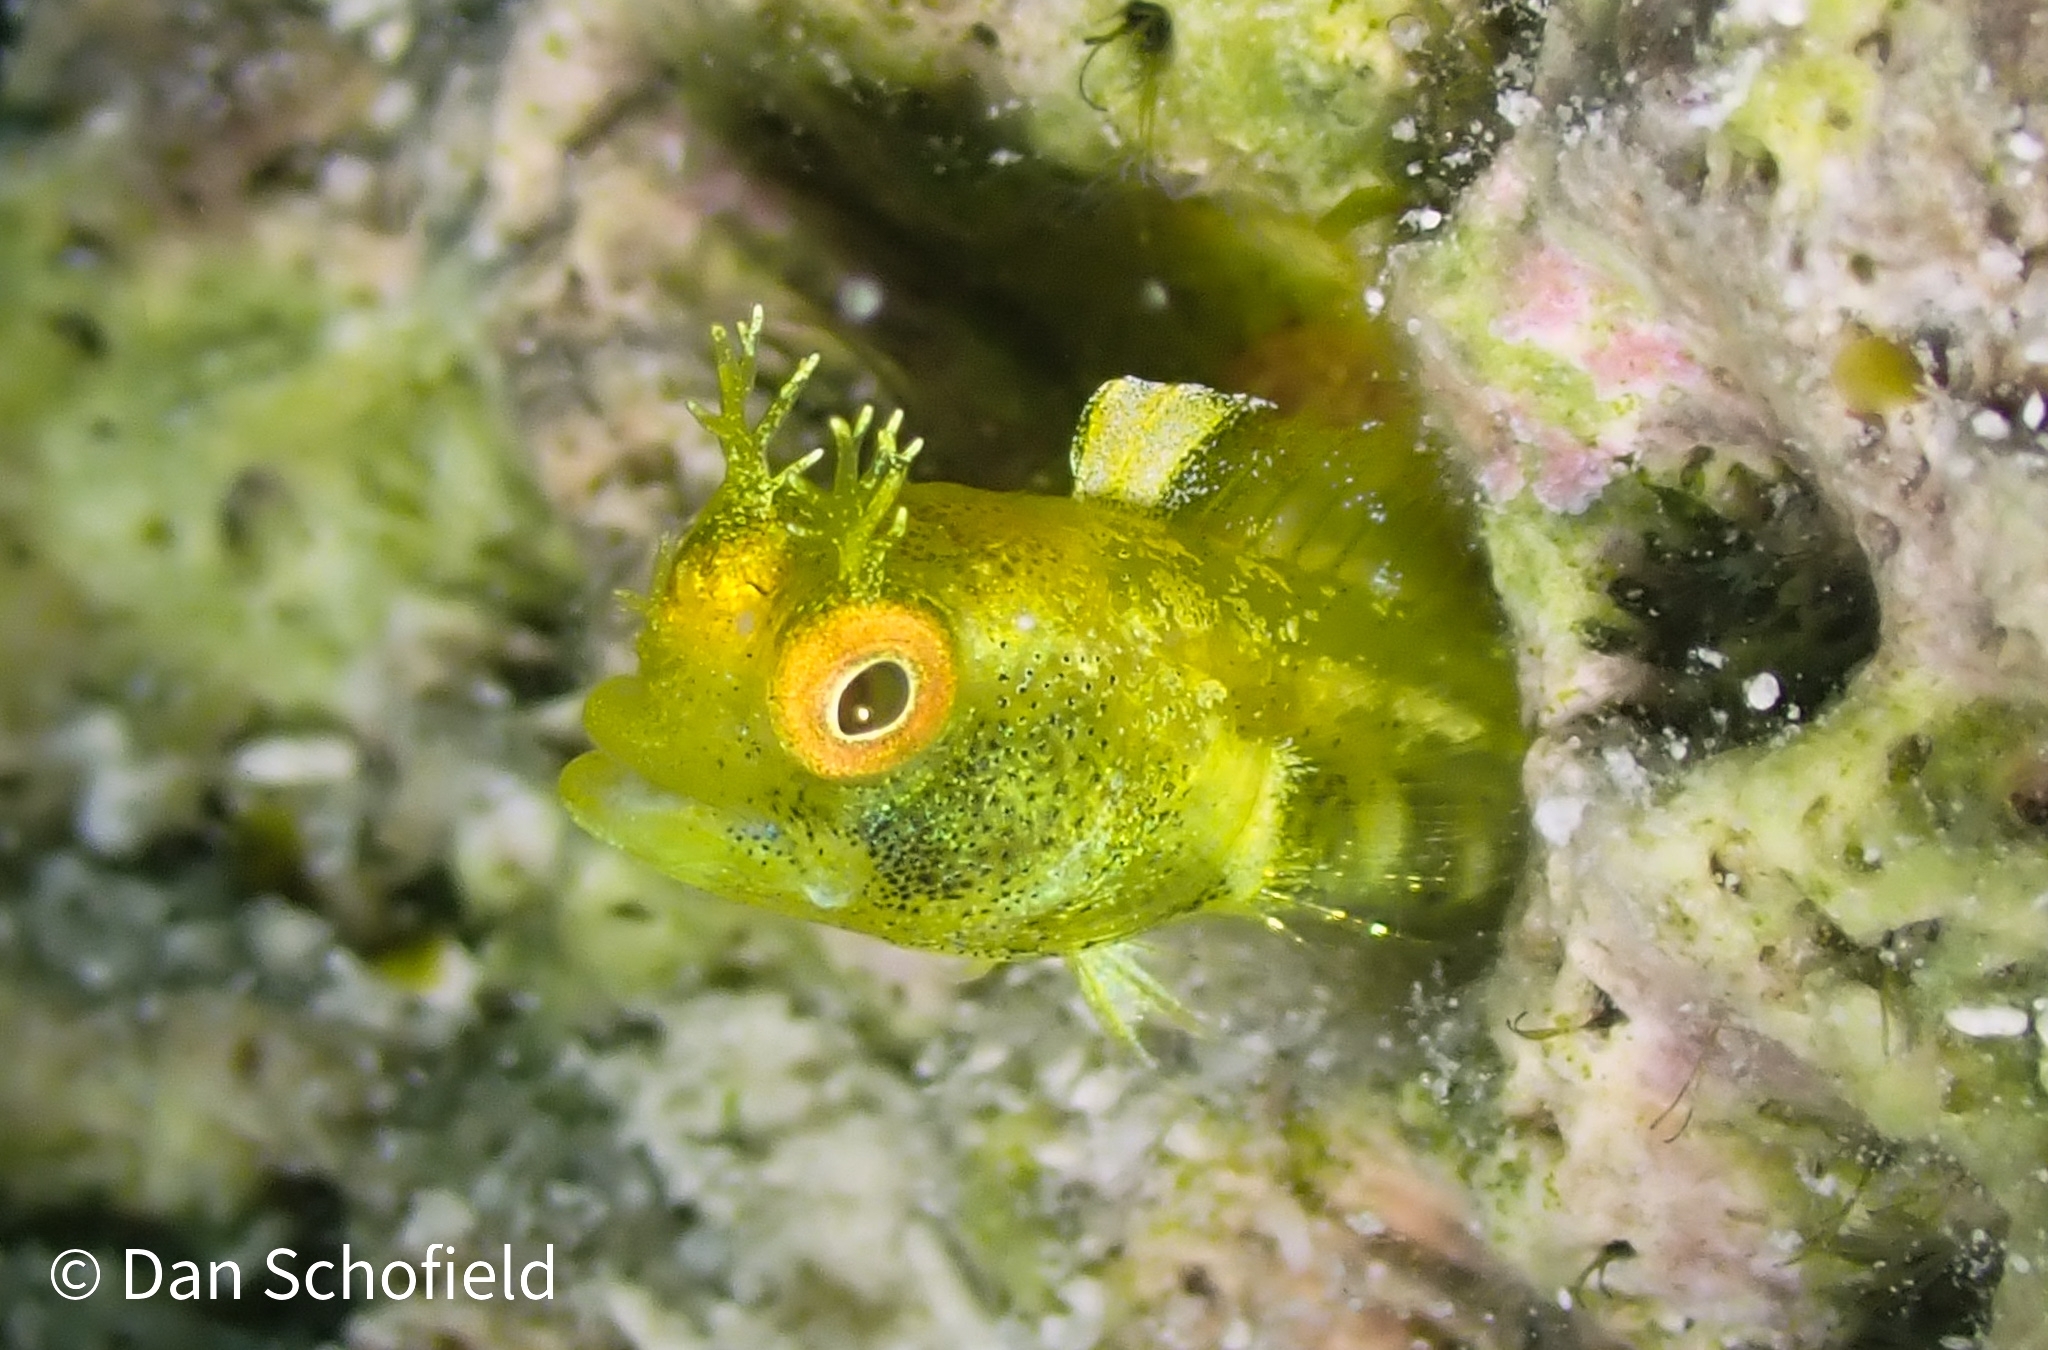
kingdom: Animalia
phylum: Chordata
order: Perciformes
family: Chaenopsidae
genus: Acanthemblemaria
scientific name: Acanthemblemaria aspera
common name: Roughhead blenny
